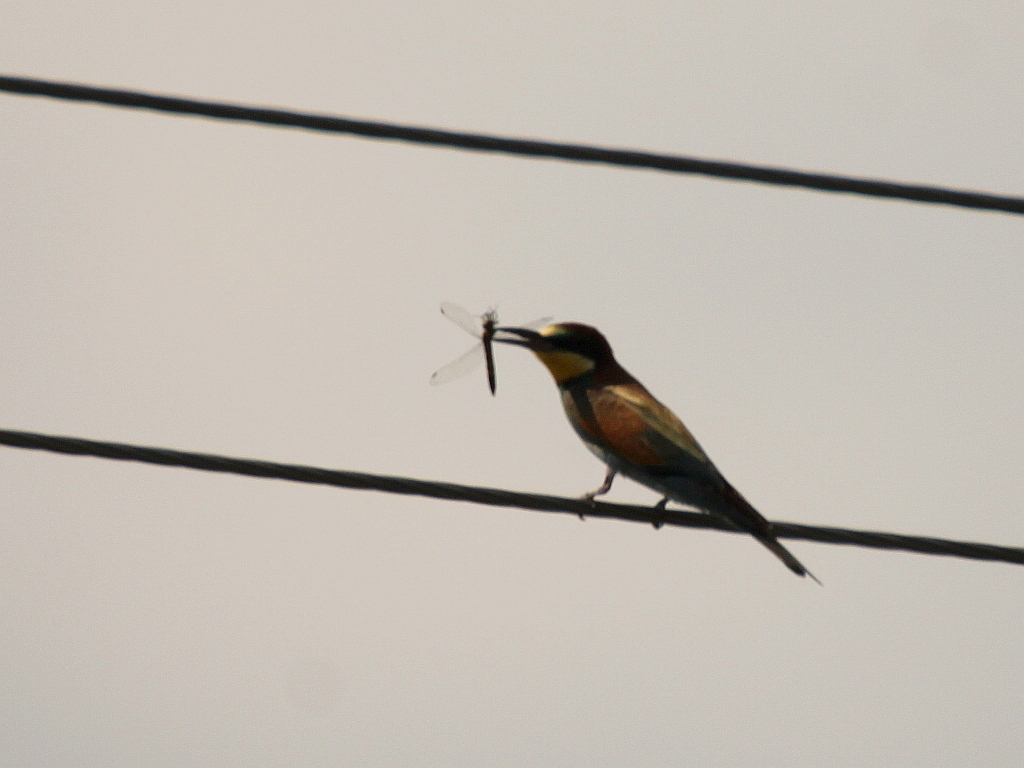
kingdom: Animalia
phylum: Chordata
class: Aves
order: Coraciiformes
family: Meropidae
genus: Merops
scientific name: Merops apiaster
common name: European bee-eater
